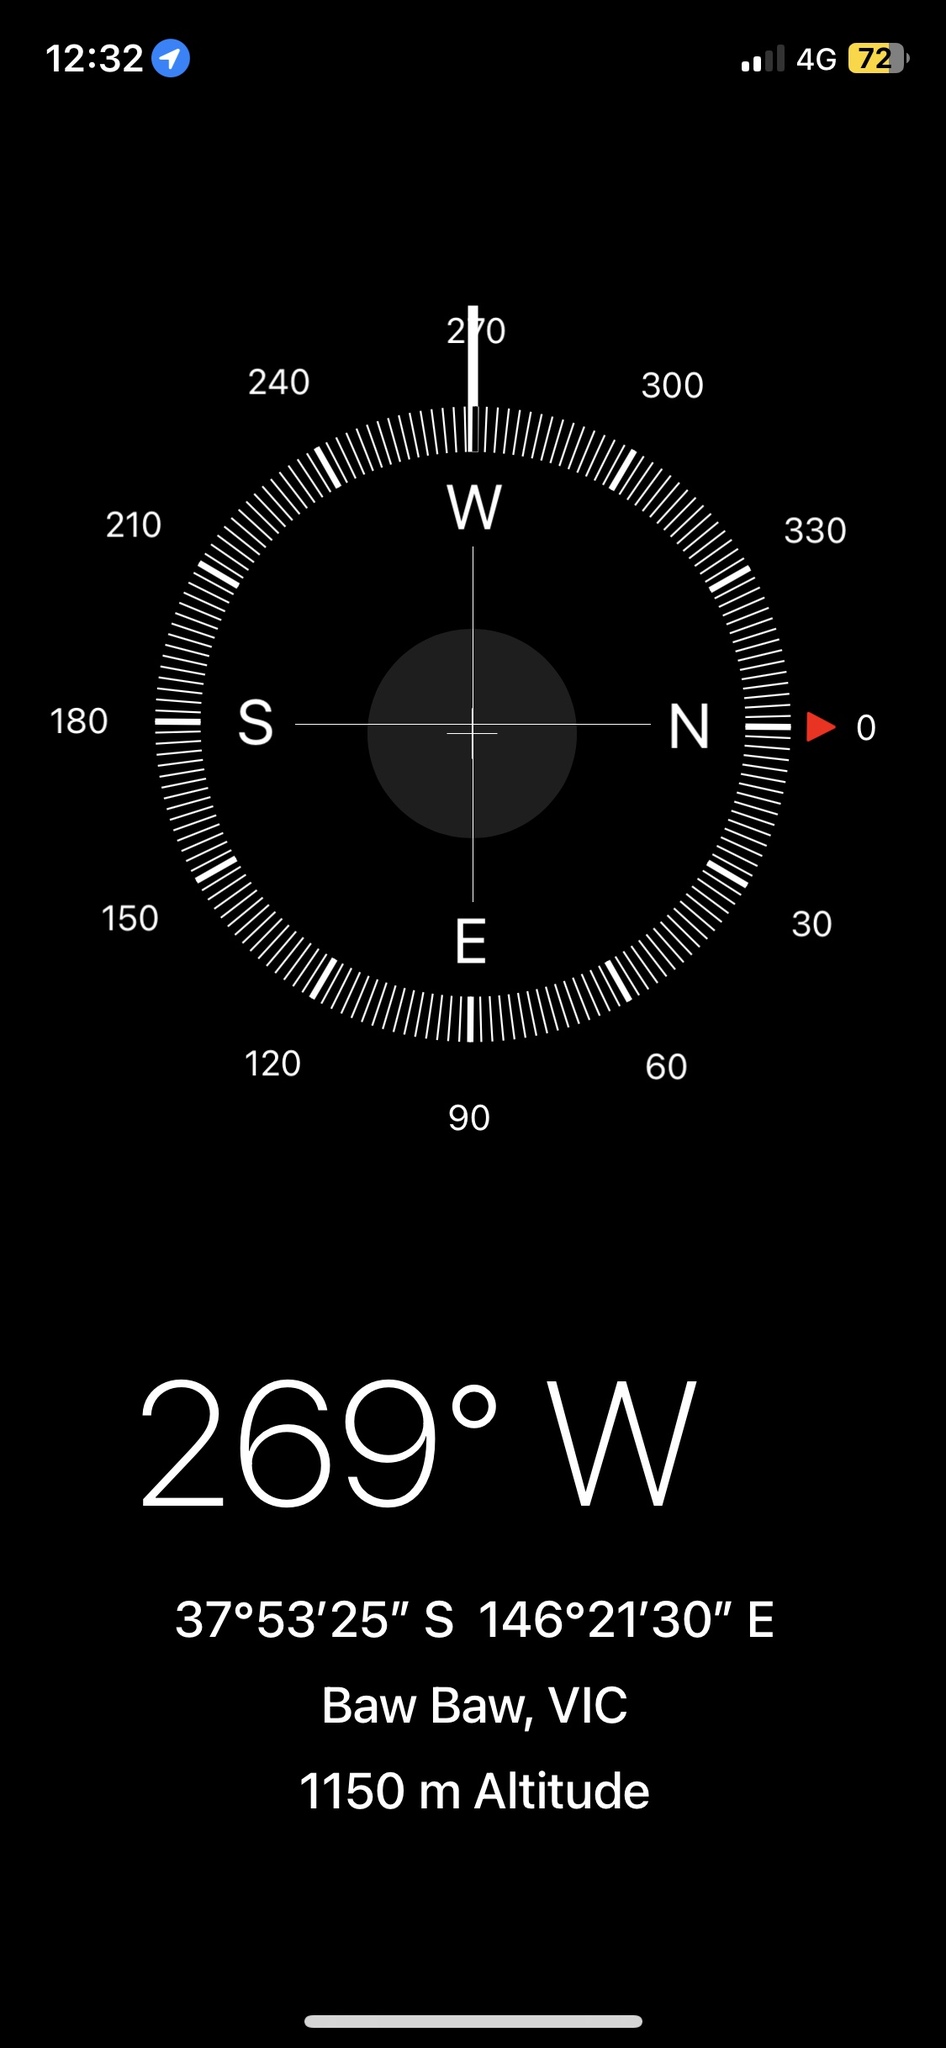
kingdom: Plantae
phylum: Marchantiophyta
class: Jungermanniopsida
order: Metzgeriales
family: Aneuraceae
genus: Riccardia
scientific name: Riccardia cochleata
